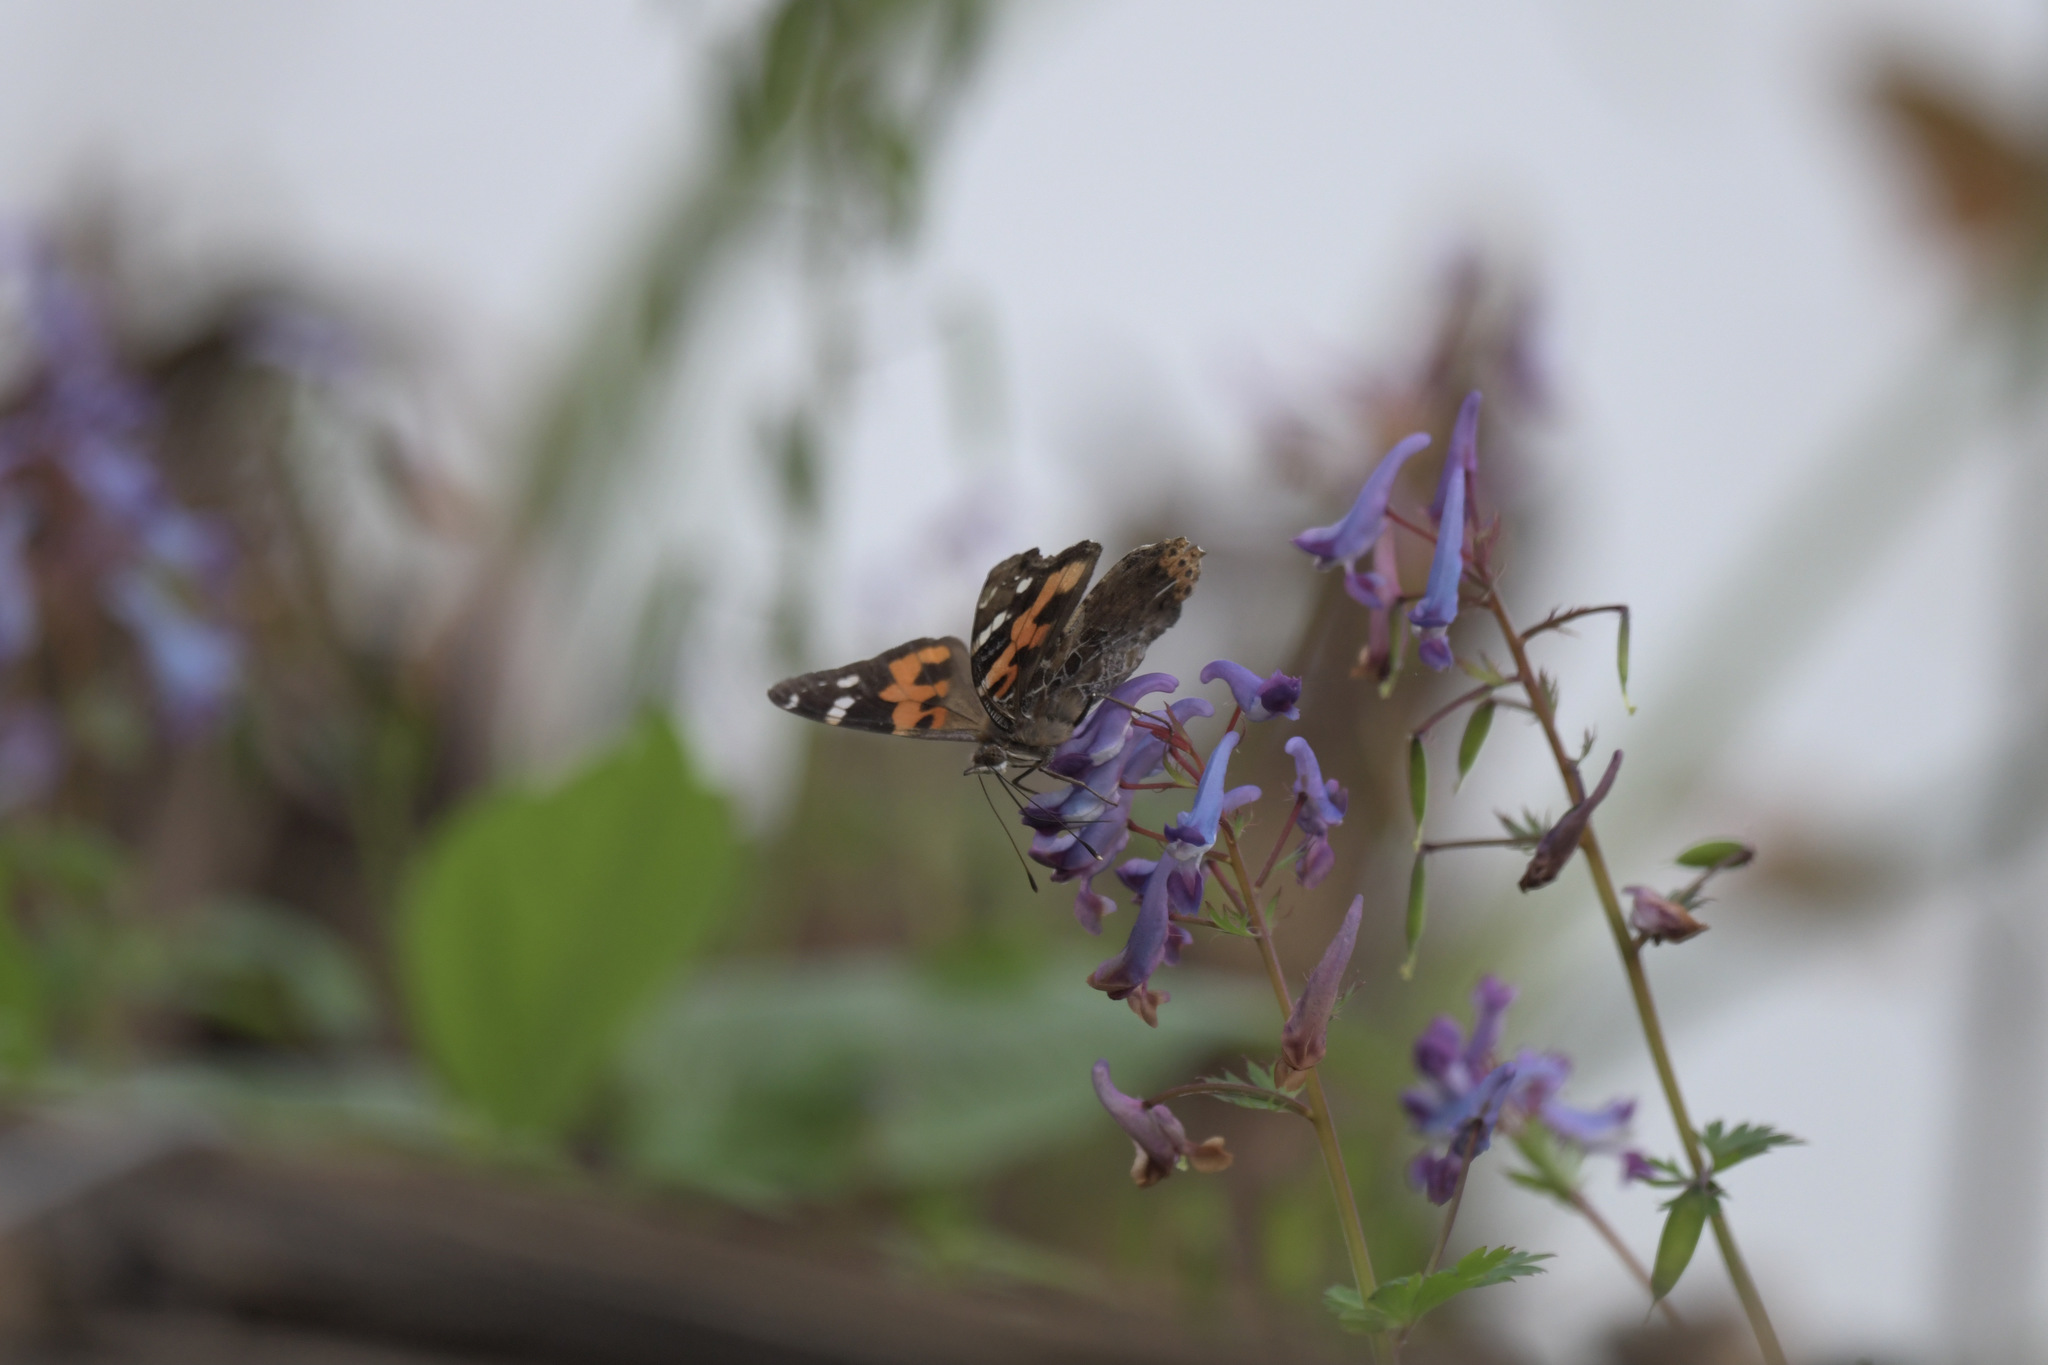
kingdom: Animalia
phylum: Arthropoda
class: Insecta
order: Lepidoptera
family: Nymphalidae
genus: Vanessa
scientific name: Vanessa indica
